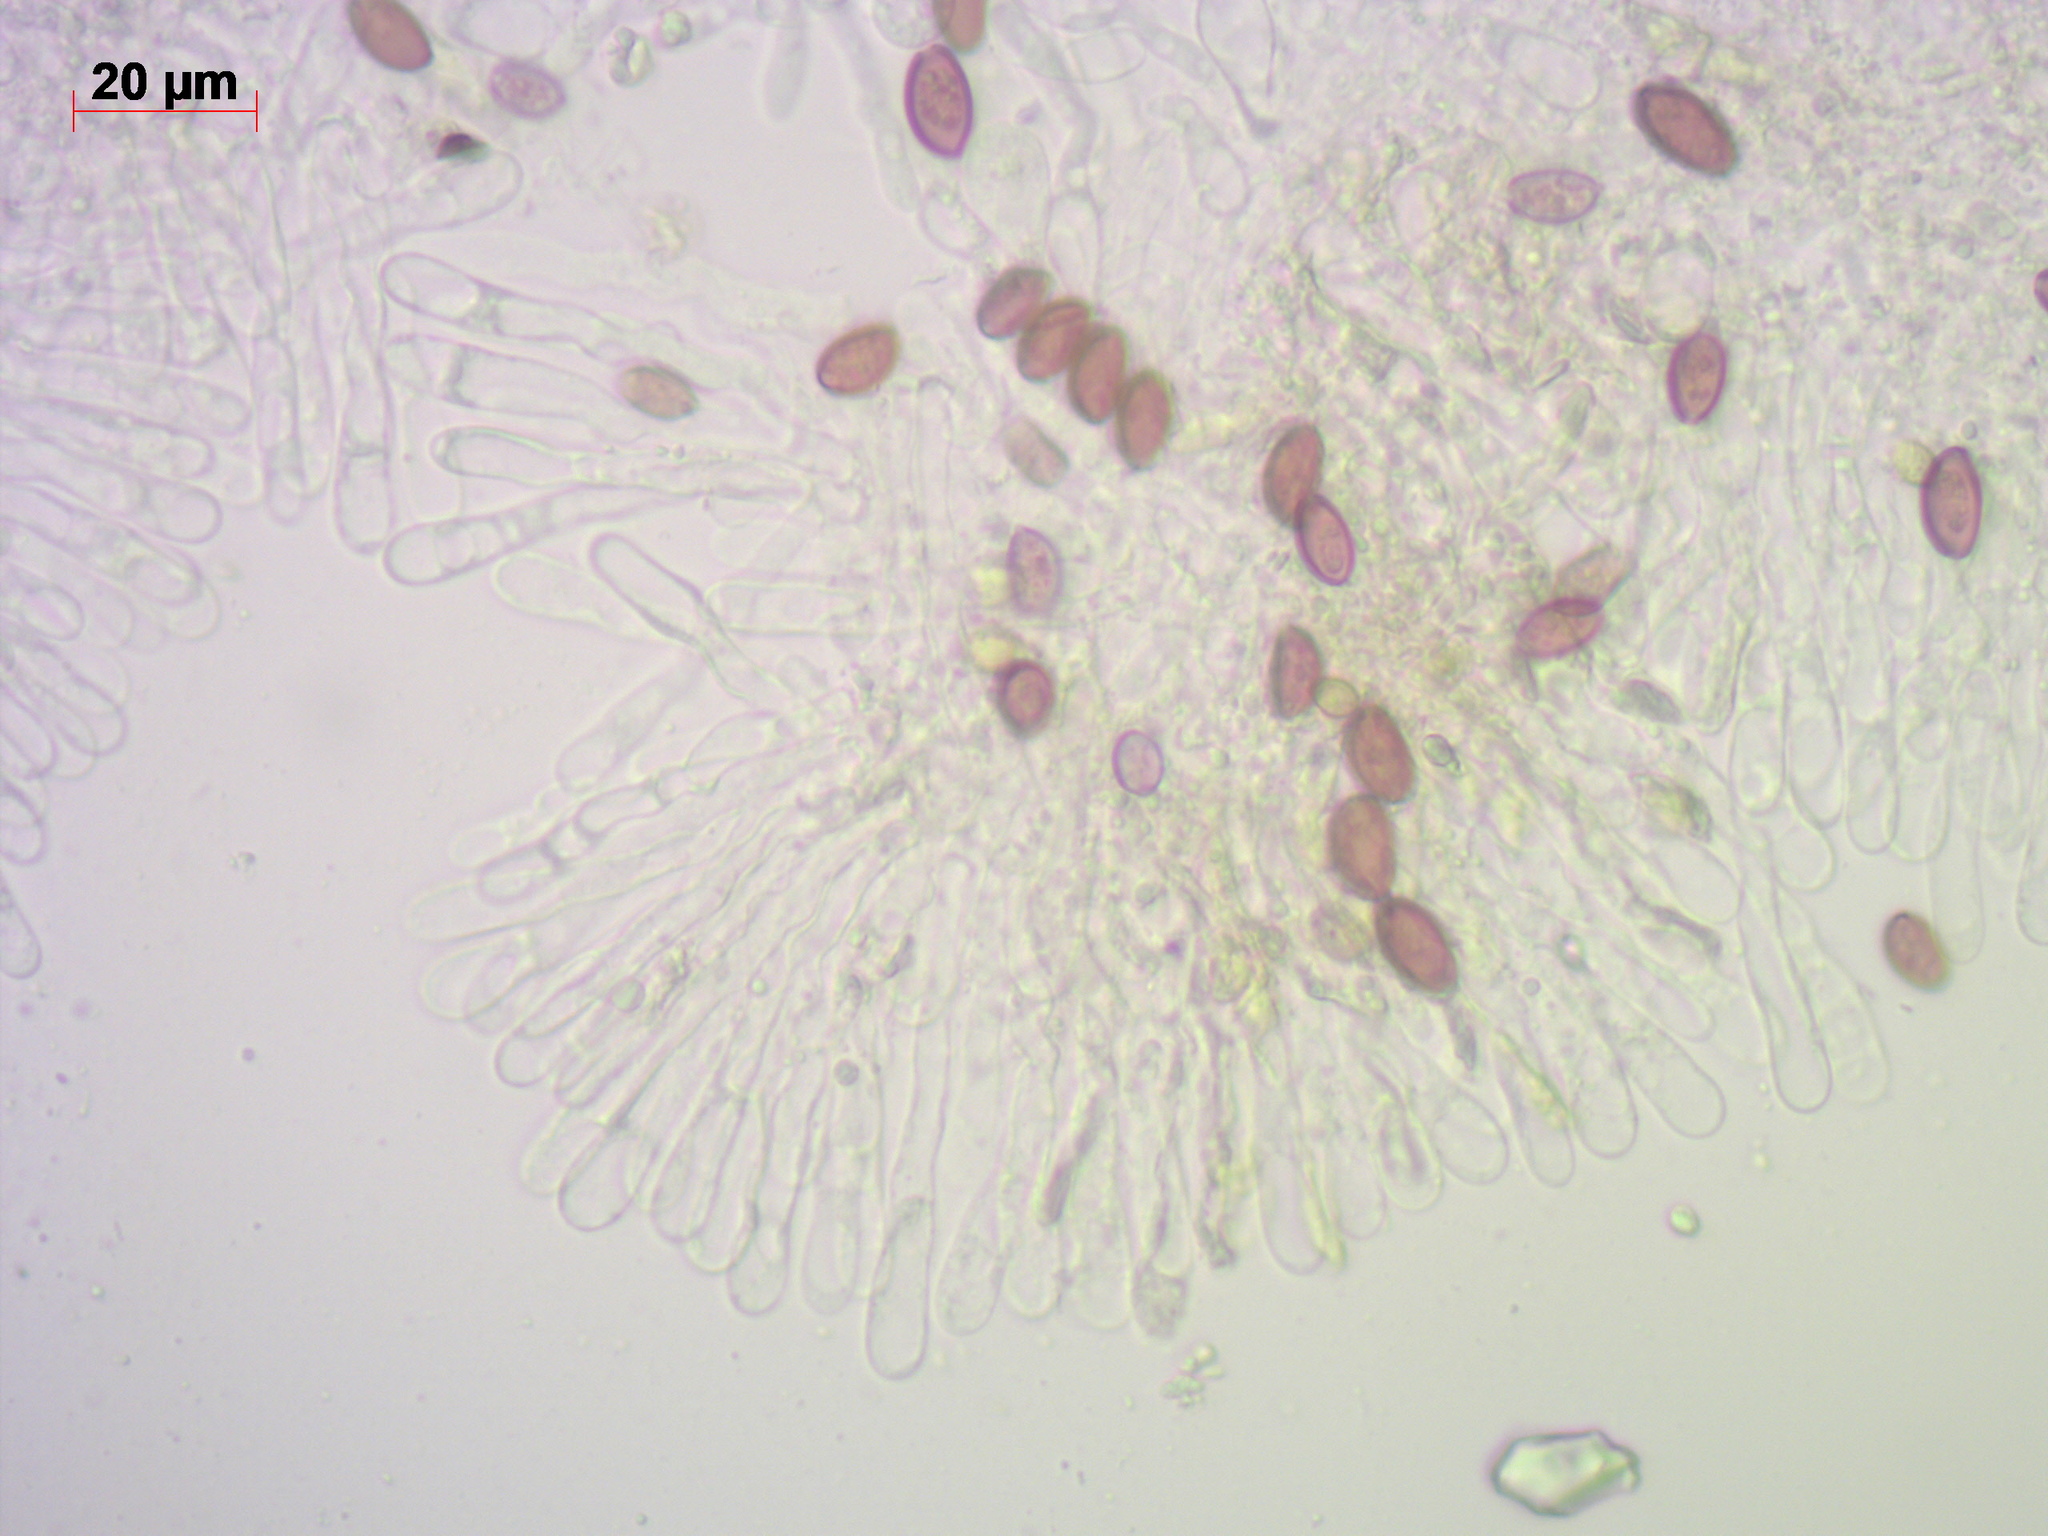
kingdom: Fungi
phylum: Basidiomycota
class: Agaricomycetes
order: Agaricales
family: Strophariaceae
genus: Leratiomyces
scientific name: Leratiomyces magnivelaris
